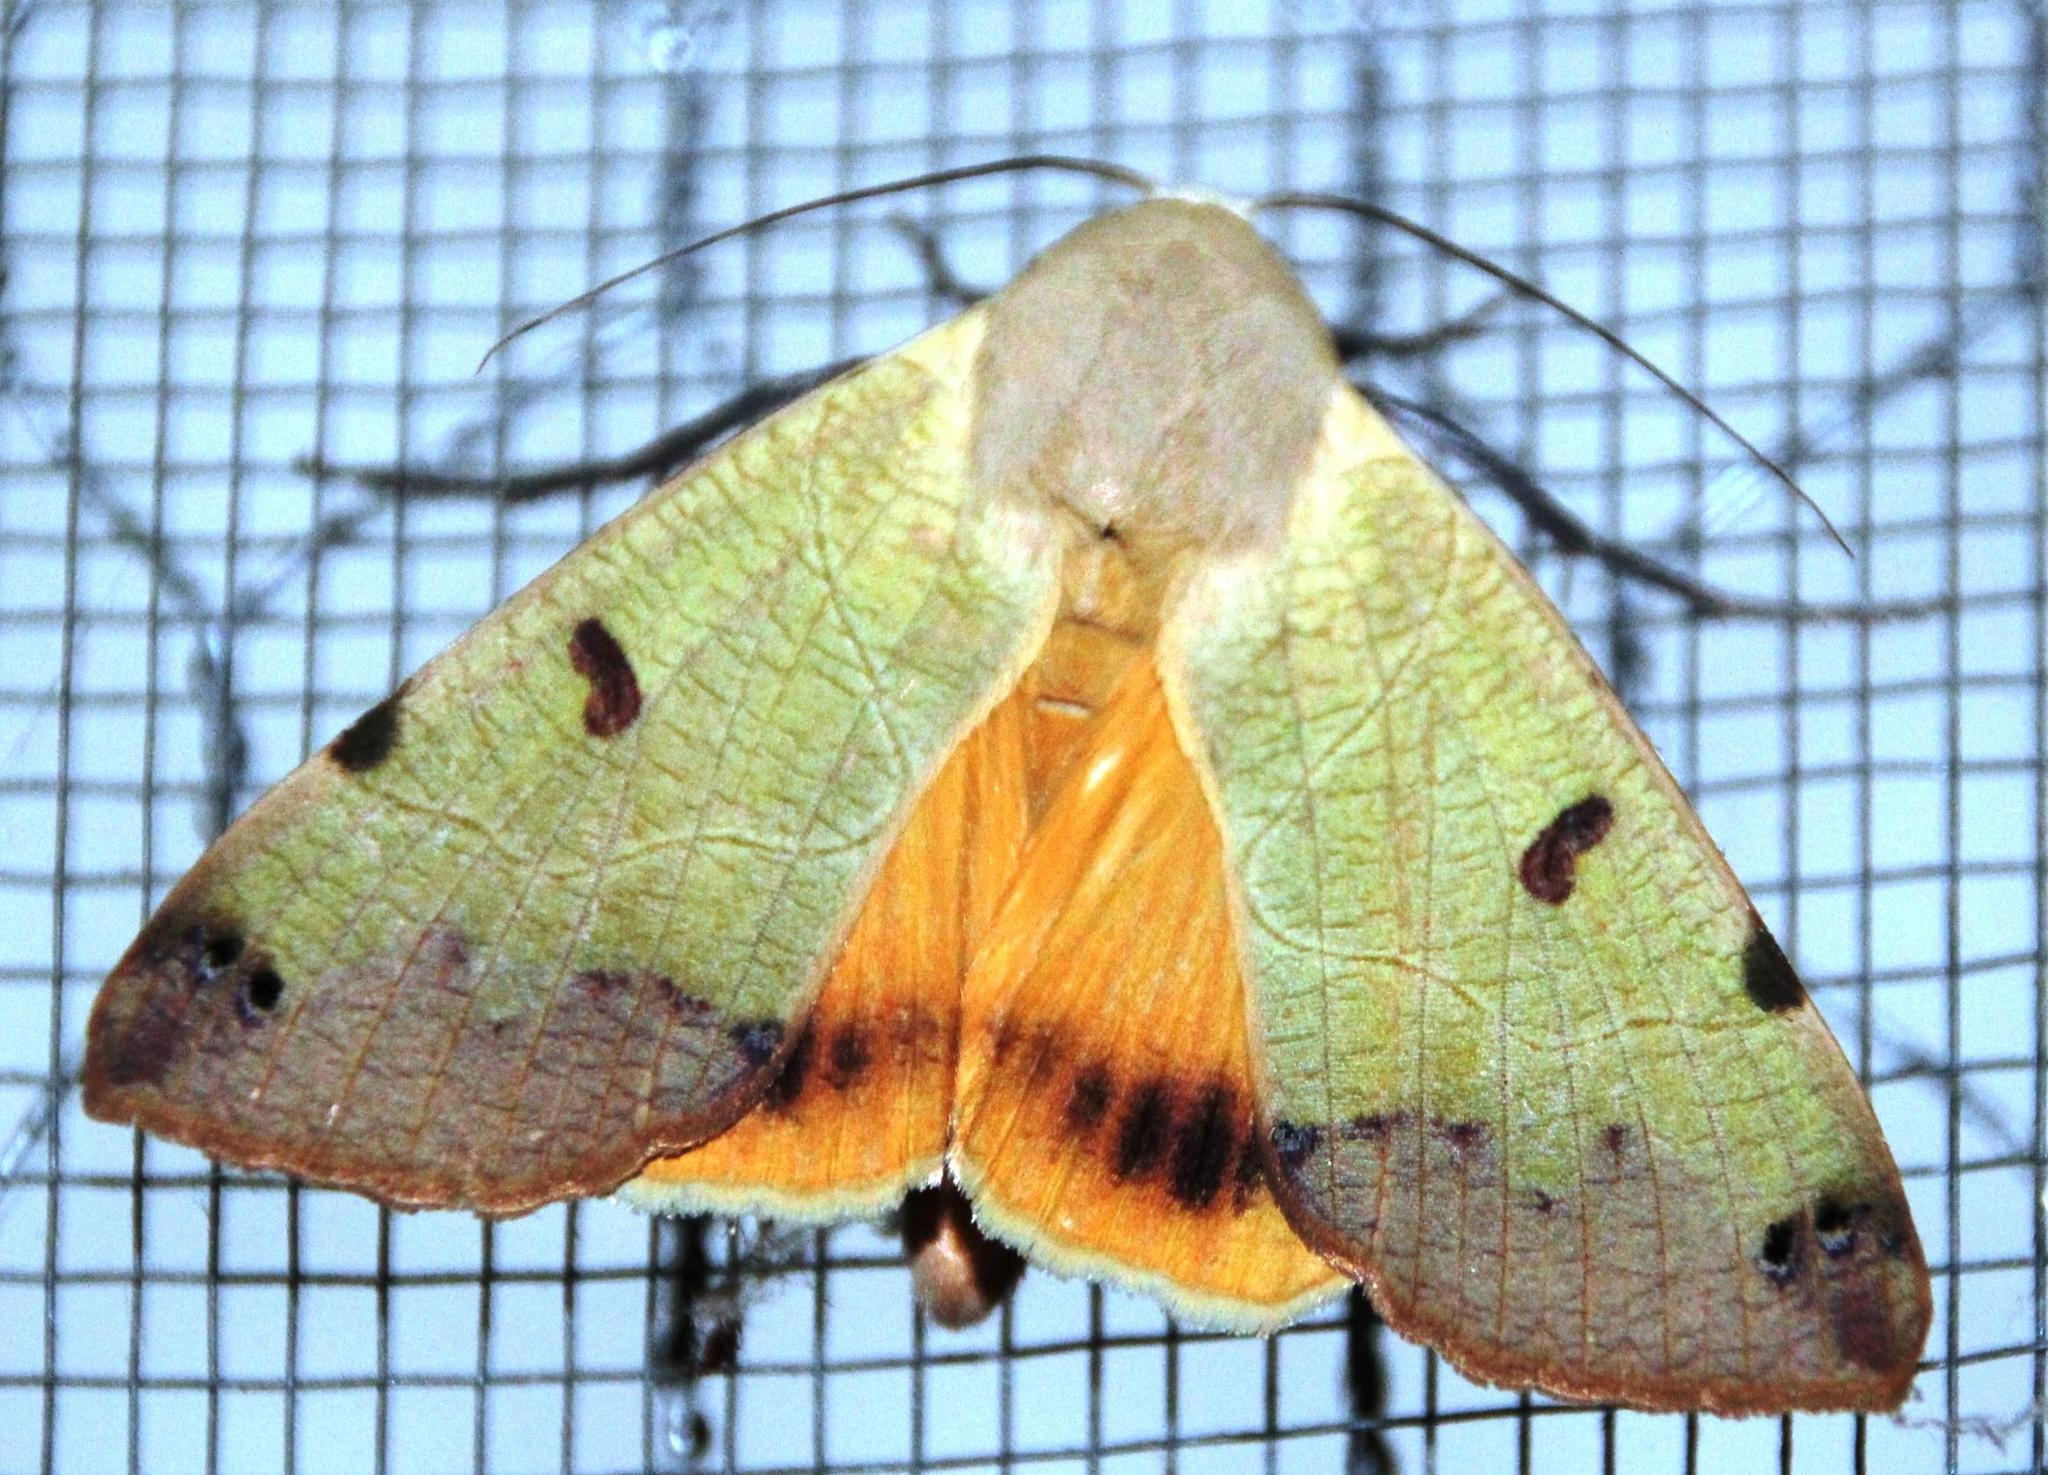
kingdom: Animalia
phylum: Arthropoda
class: Insecta
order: Lepidoptera
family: Erebidae
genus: Ophiusa
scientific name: Ophiusa tirhaca
